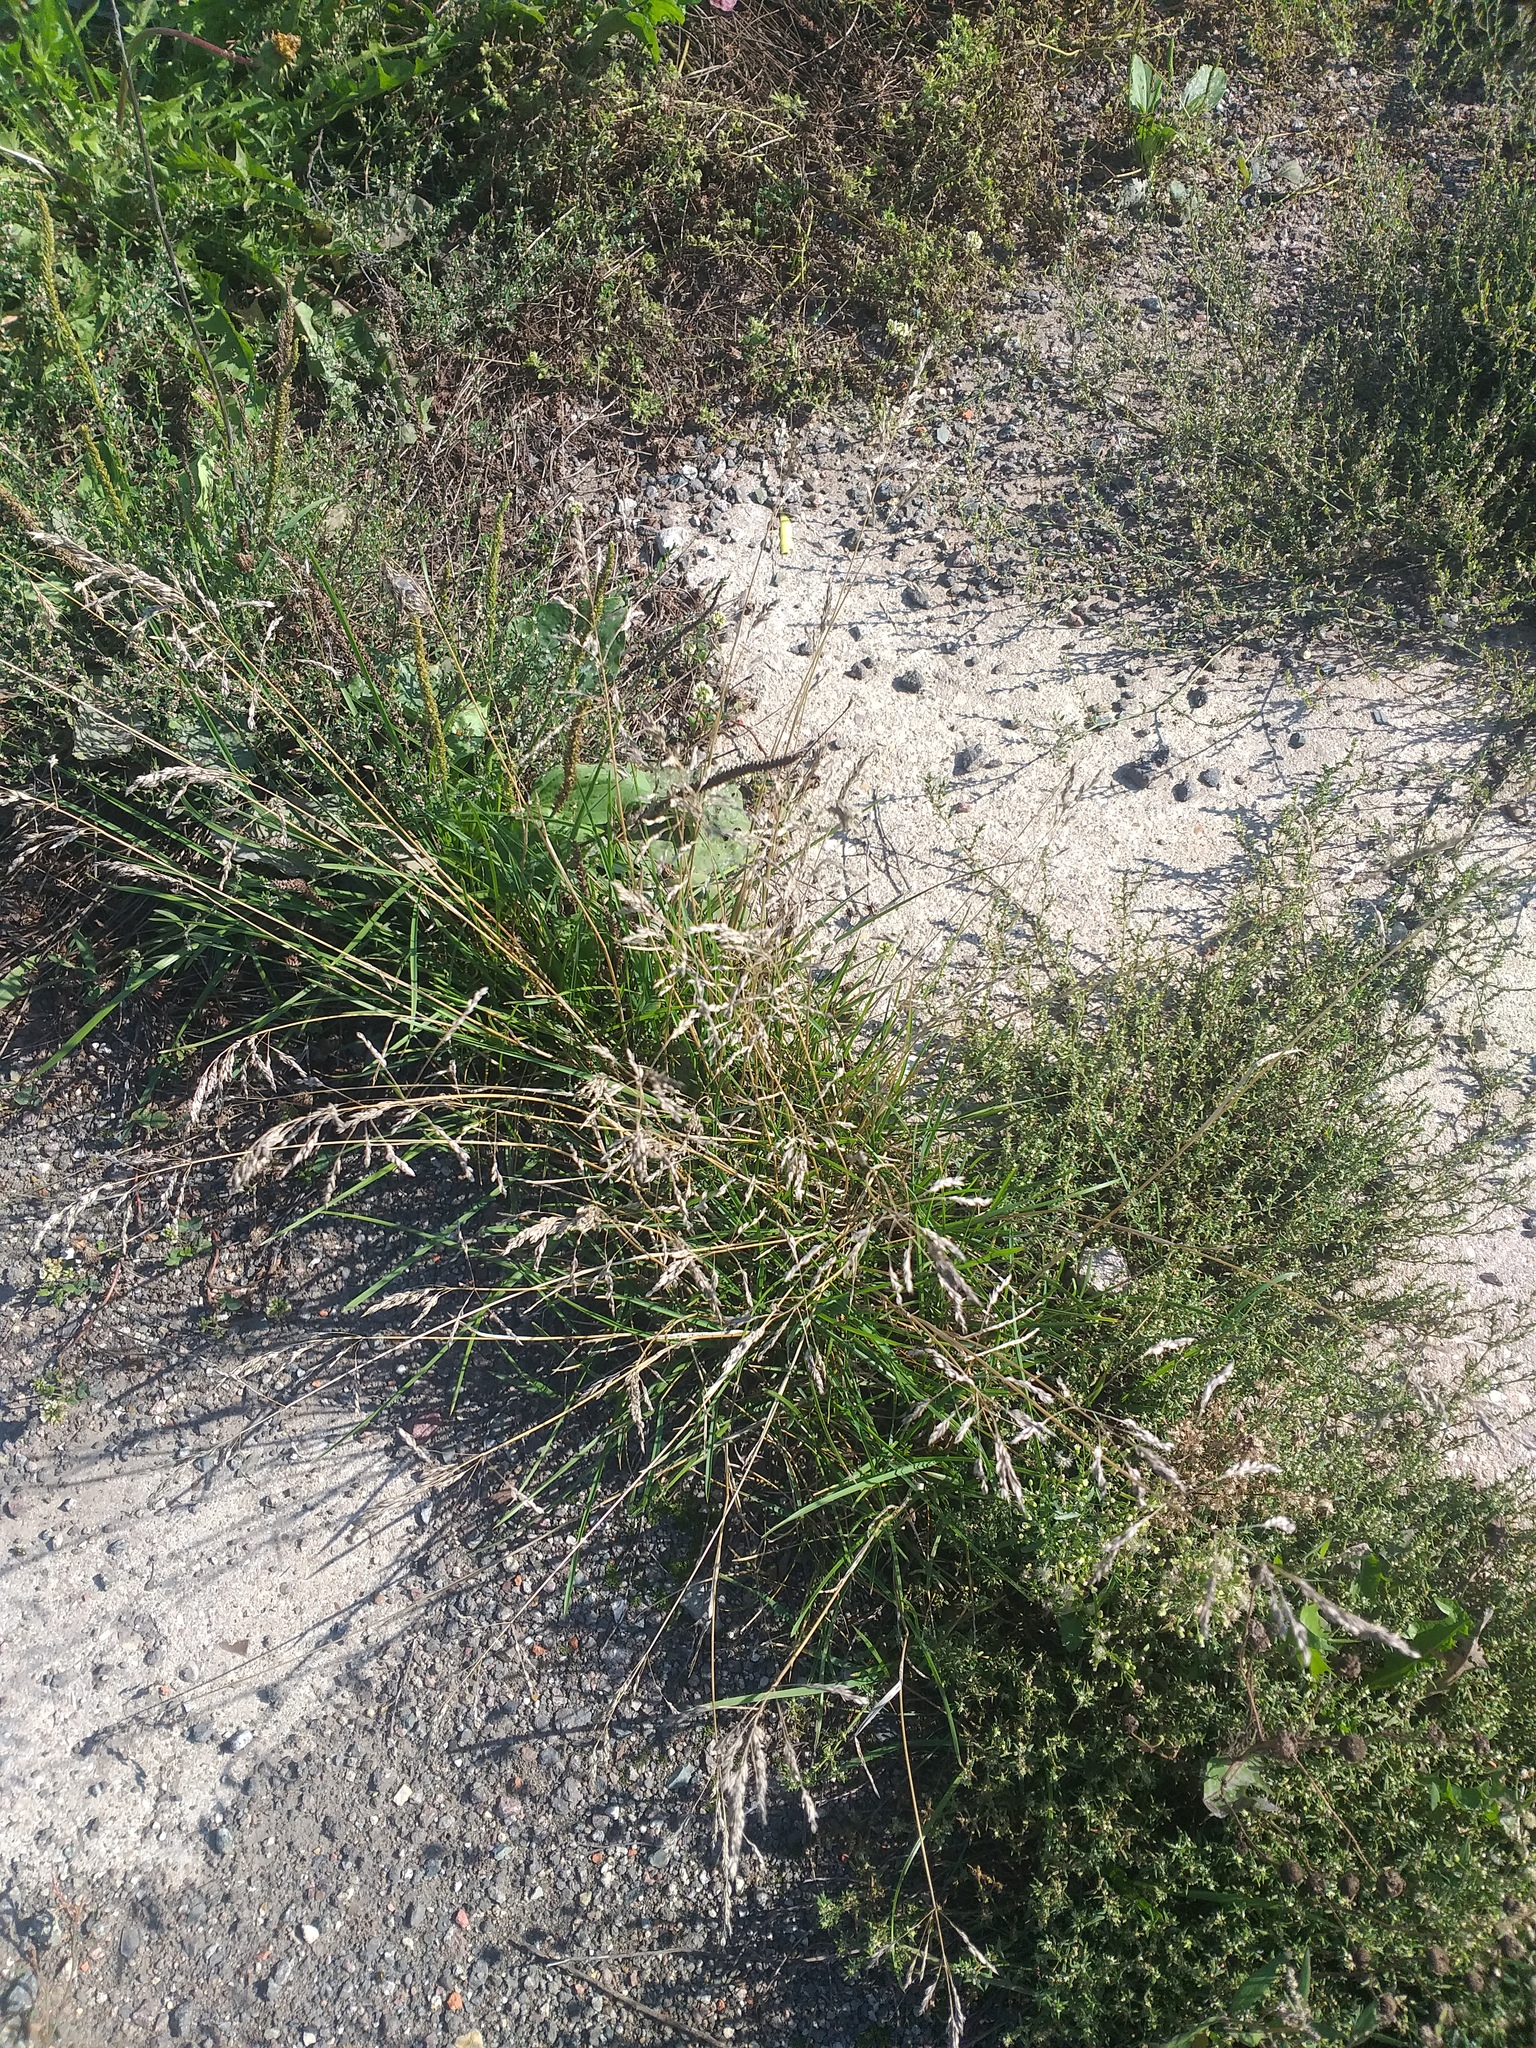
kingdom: Plantae
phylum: Tracheophyta
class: Liliopsida
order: Poales
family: Poaceae
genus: Poa
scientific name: Poa pratensis
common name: Kentucky bluegrass
